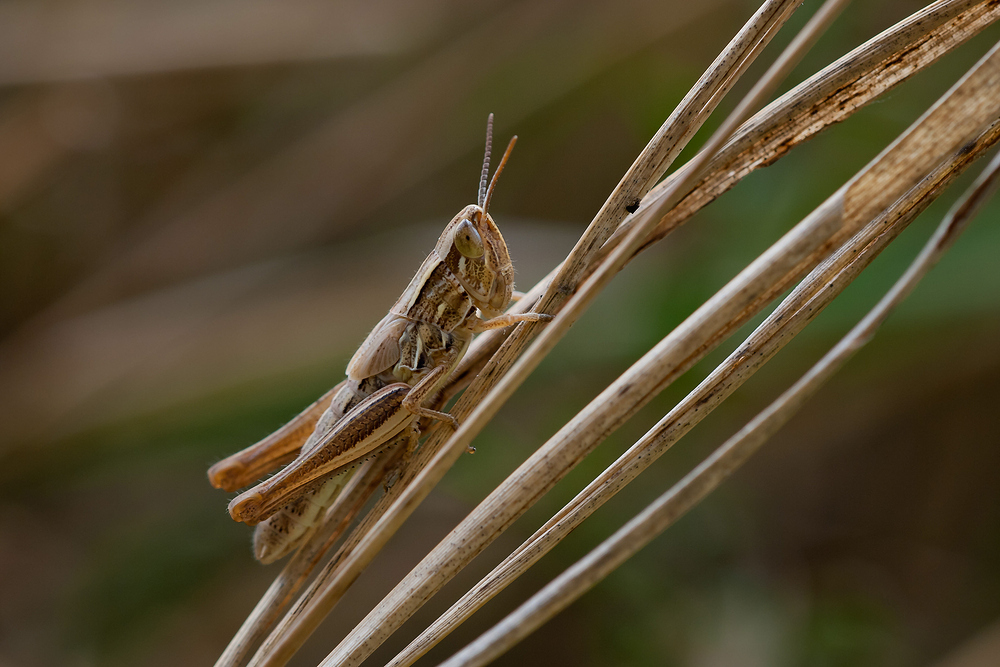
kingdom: Animalia
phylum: Arthropoda
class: Insecta
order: Orthoptera
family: Acrididae
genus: Euchorthippus
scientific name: Euchorthippus declivus
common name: Common straw grasshopper
